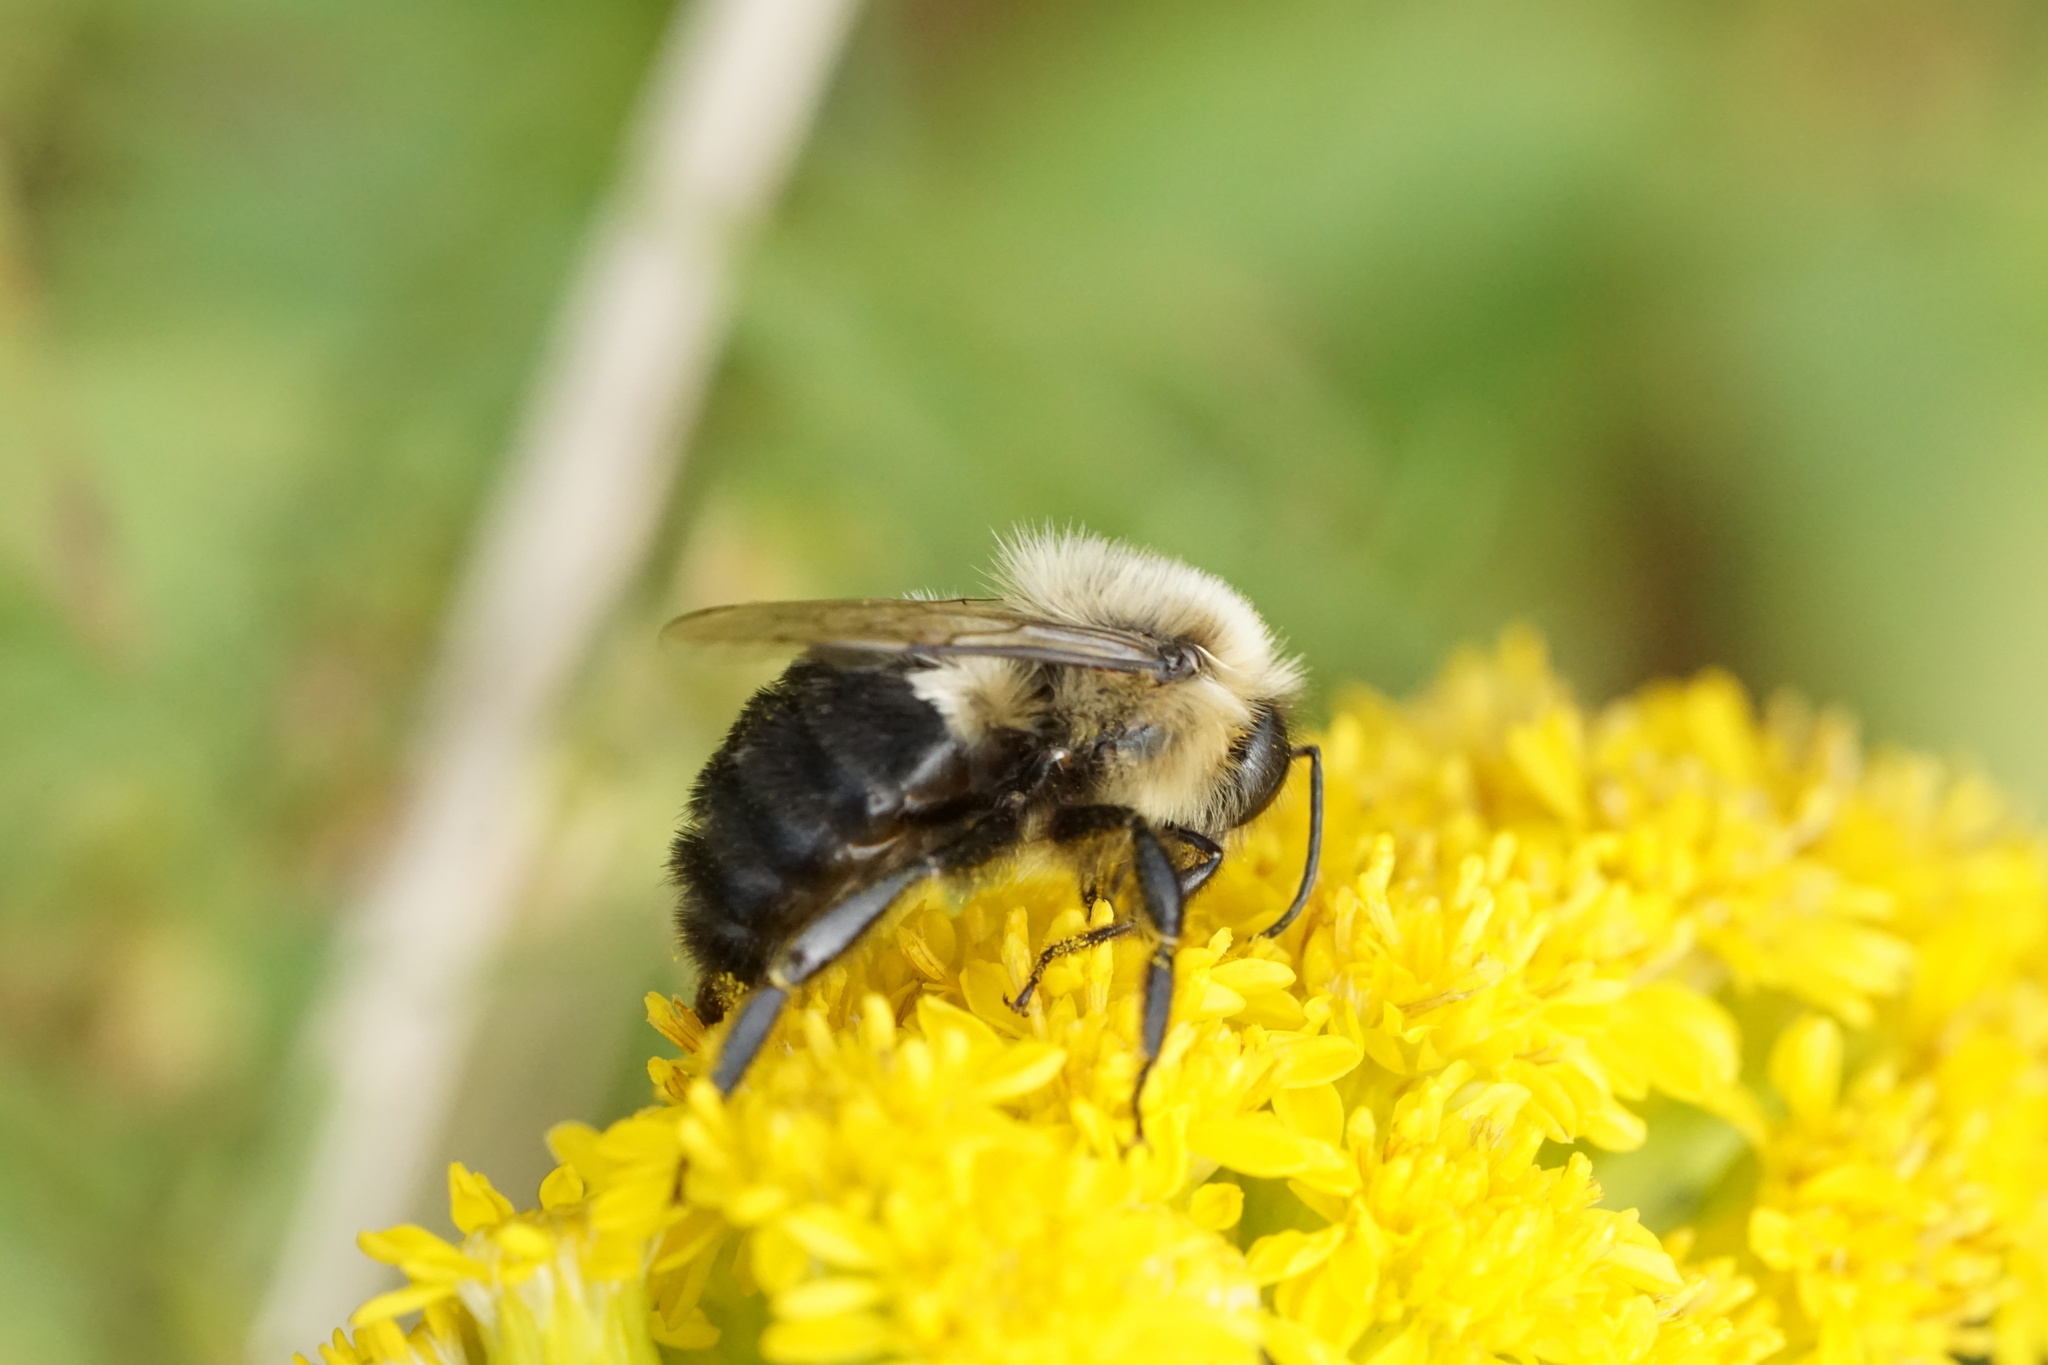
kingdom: Animalia
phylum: Arthropoda
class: Insecta
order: Hymenoptera
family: Apidae
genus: Bombus
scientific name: Bombus impatiens
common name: Common eastern bumble bee
